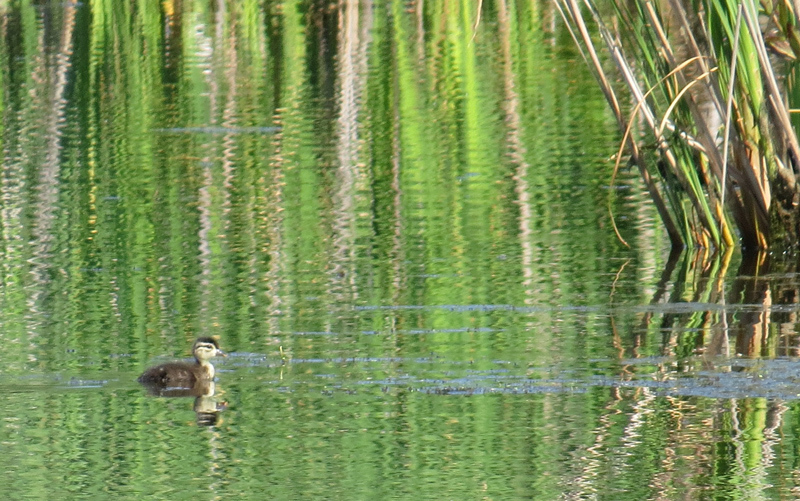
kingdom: Animalia
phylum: Chordata
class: Aves
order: Anseriformes
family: Anatidae
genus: Aix
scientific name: Aix sponsa
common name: Wood duck
